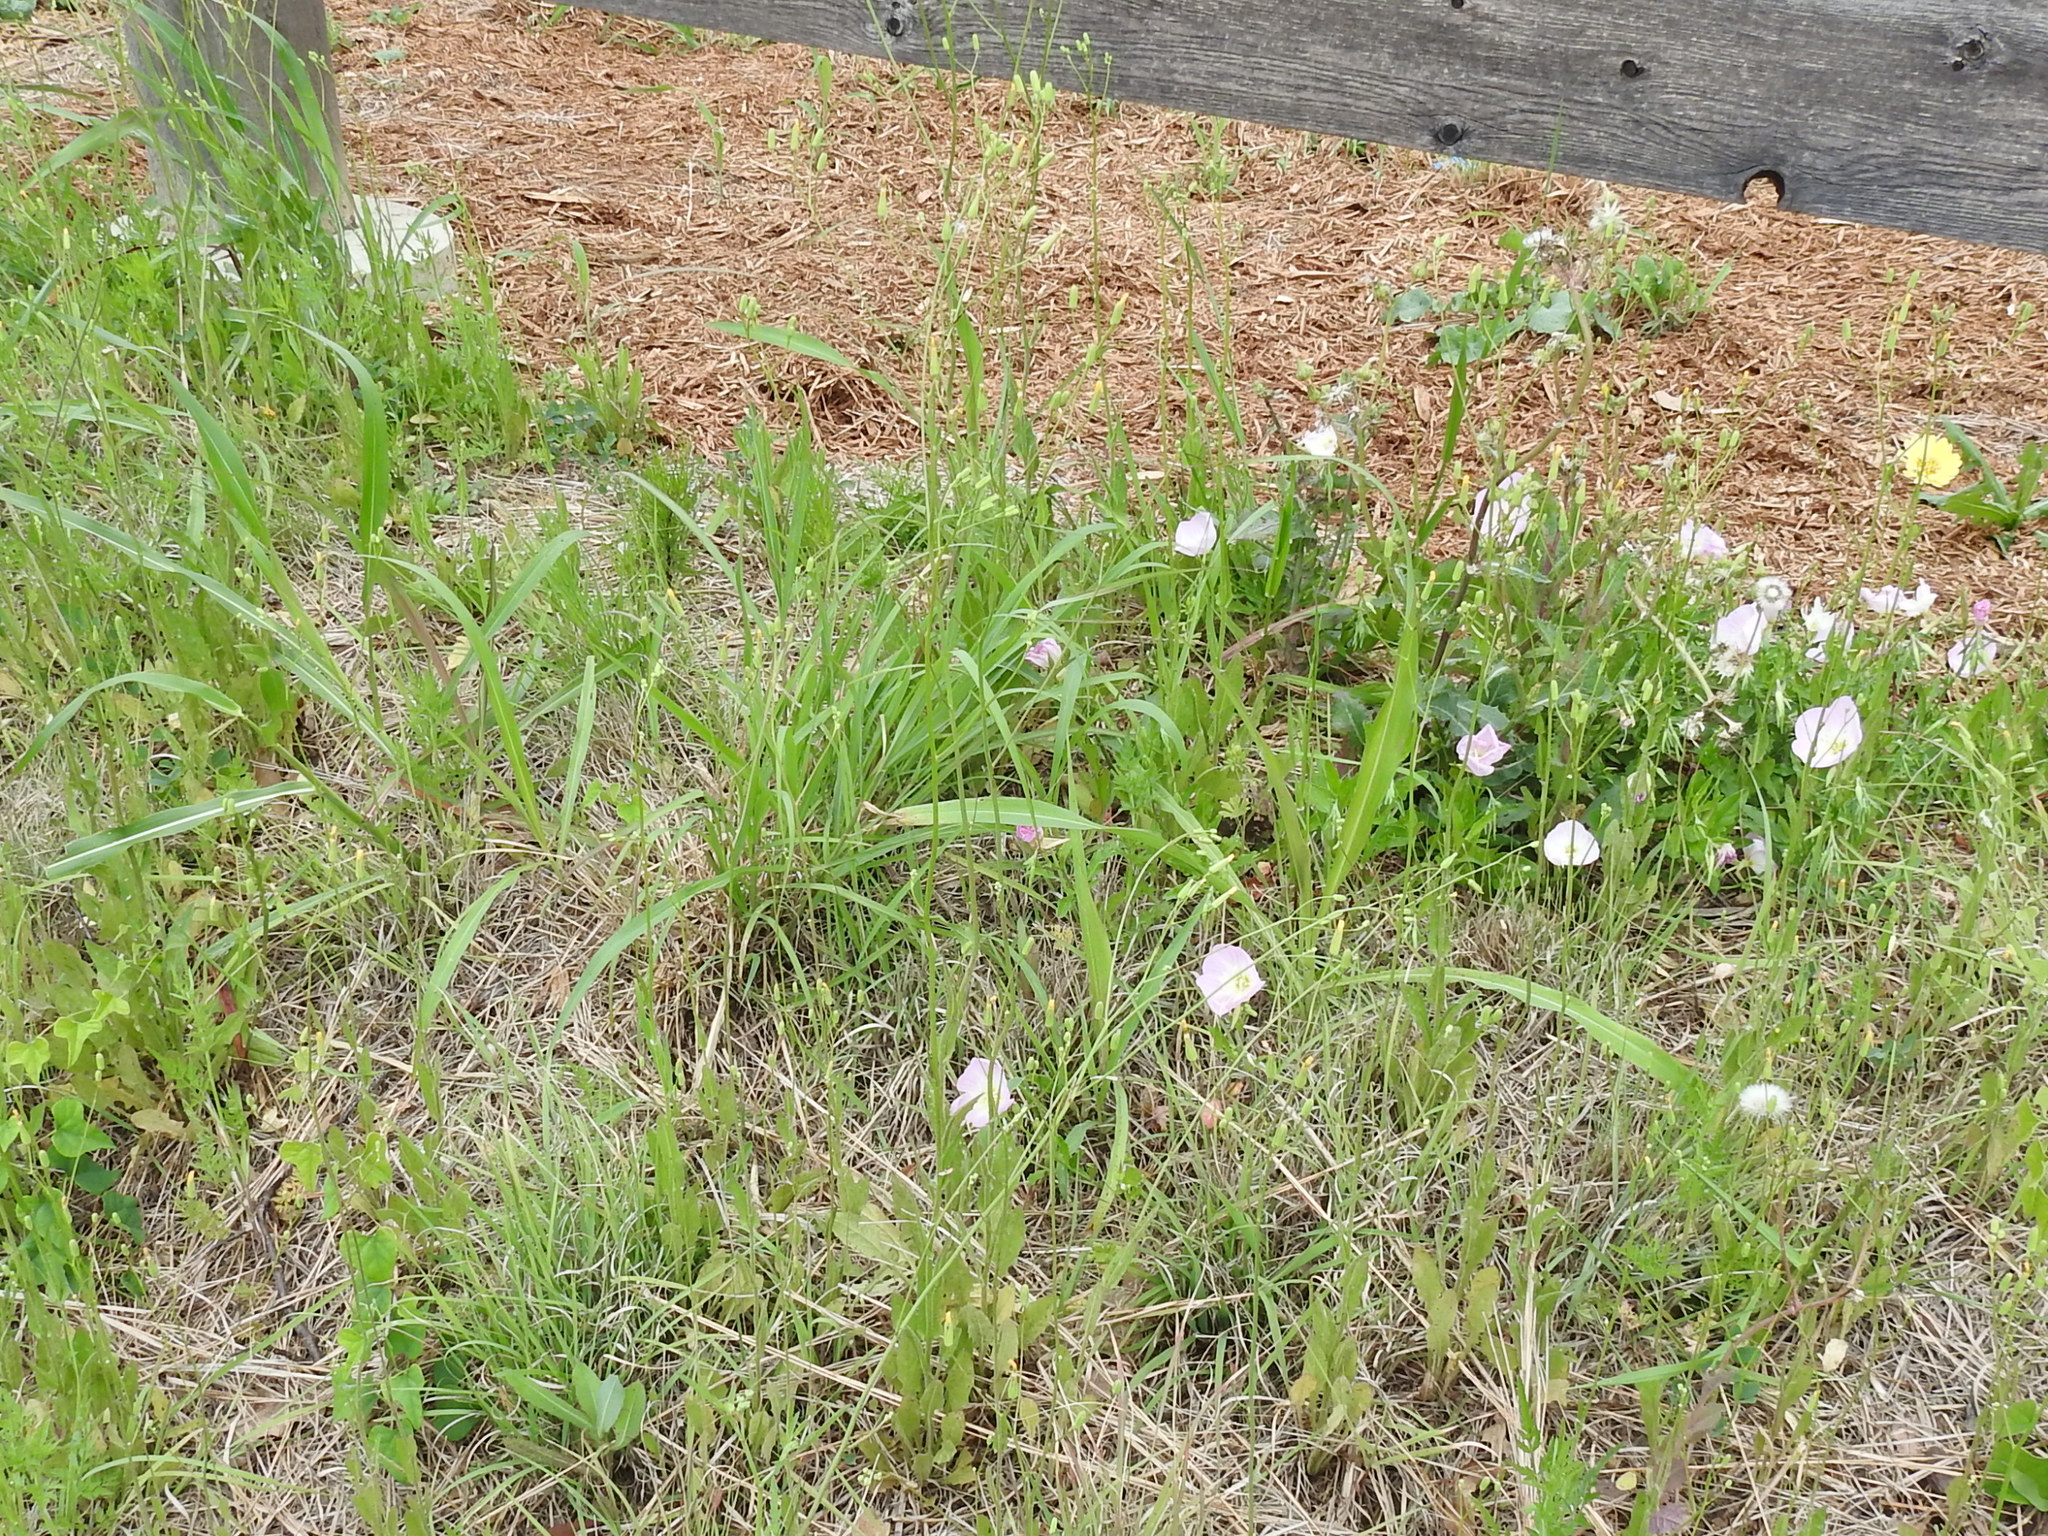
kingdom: Plantae
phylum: Tracheophyta
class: Magnoliopsida
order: Asterales
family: Asteraceae
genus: Crepis
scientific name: Crepis pulchra
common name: Hawk's-beard
